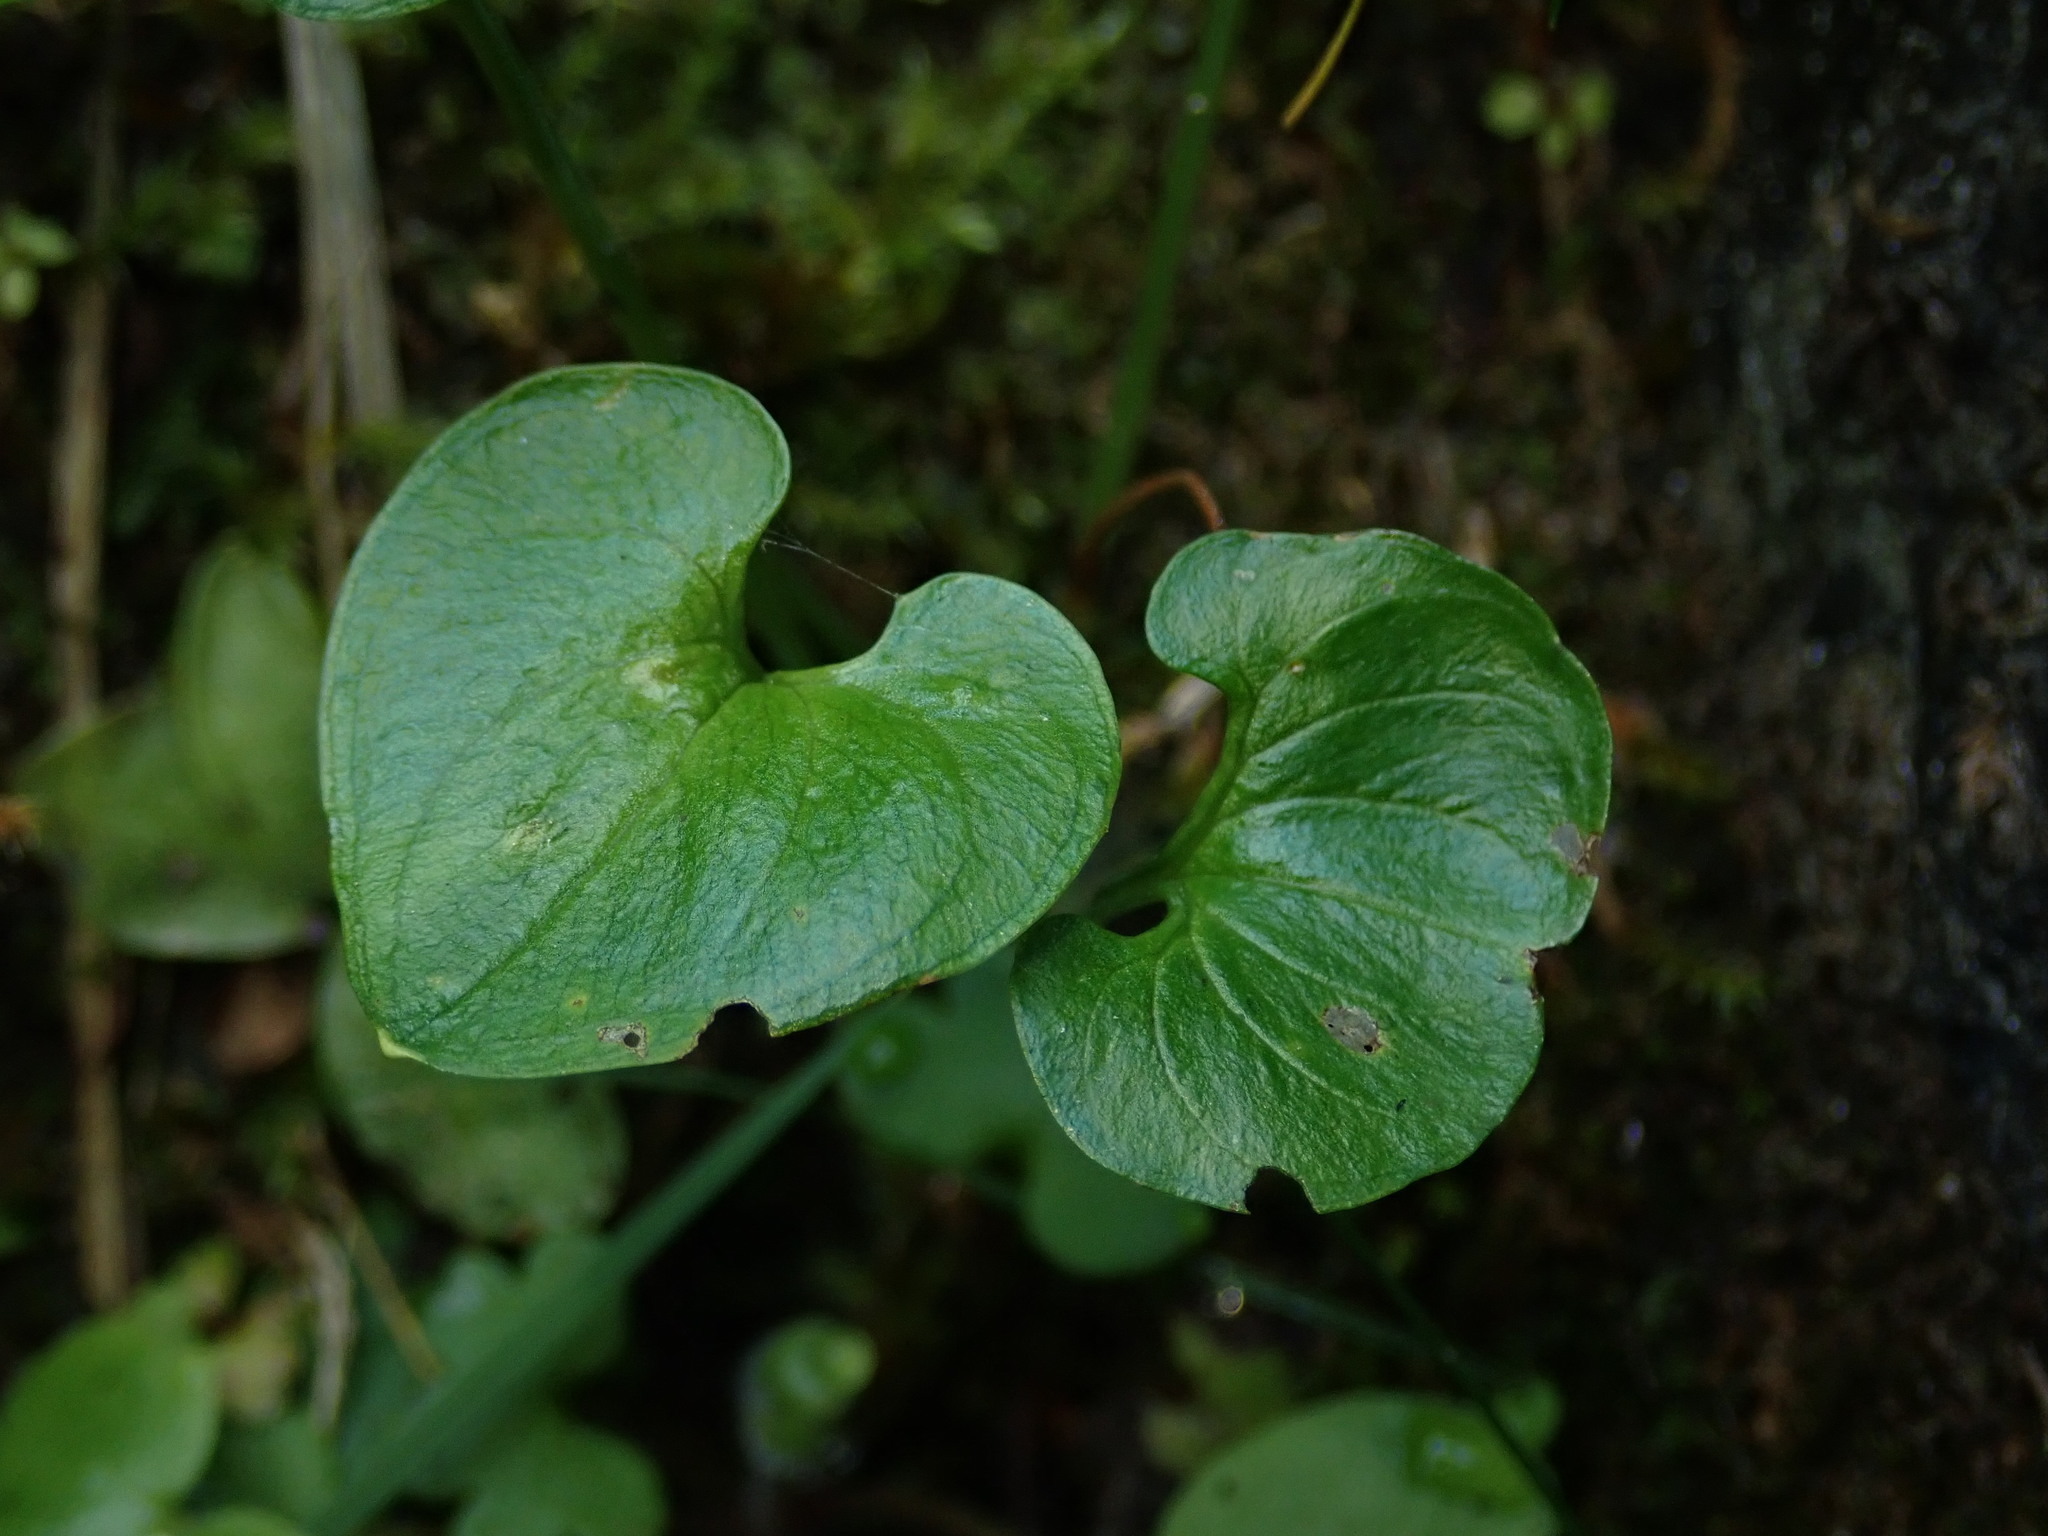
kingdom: Plantae
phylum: Tracheophyta
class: Magnoliopsida
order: Celastrales
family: Parnassiaceae
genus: Parnassia
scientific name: Parnassia fimbriata
